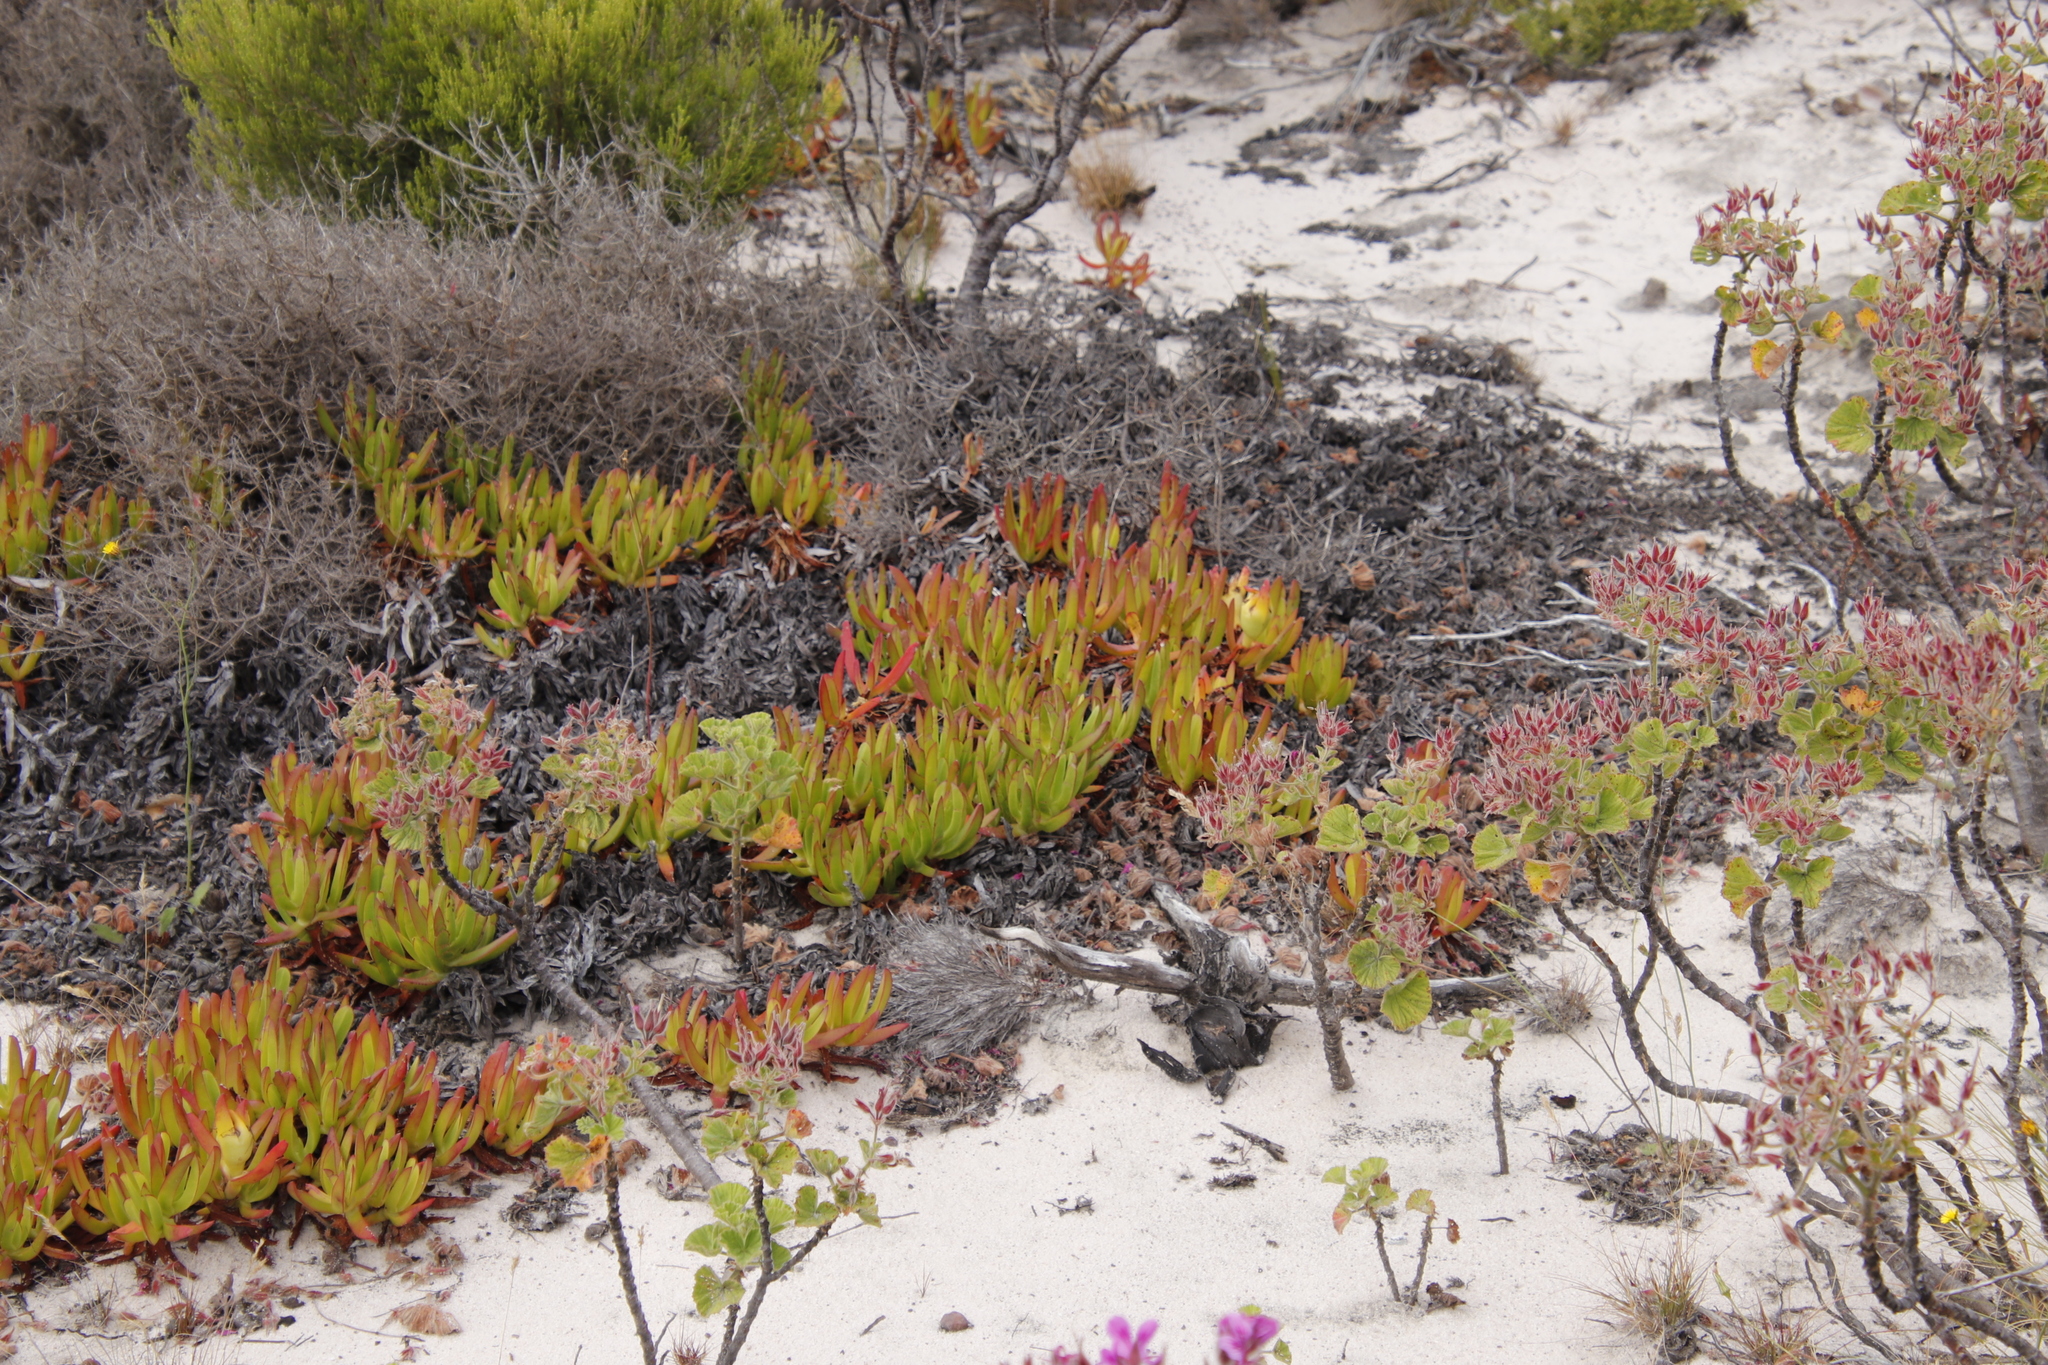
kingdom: Plantae
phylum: Tracheophyta
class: Magnoliopsida
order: Caryophyllales
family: Aizoaceae
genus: Carpobrotus
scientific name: Carpobrotus edulis
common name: Hottentot-fig
